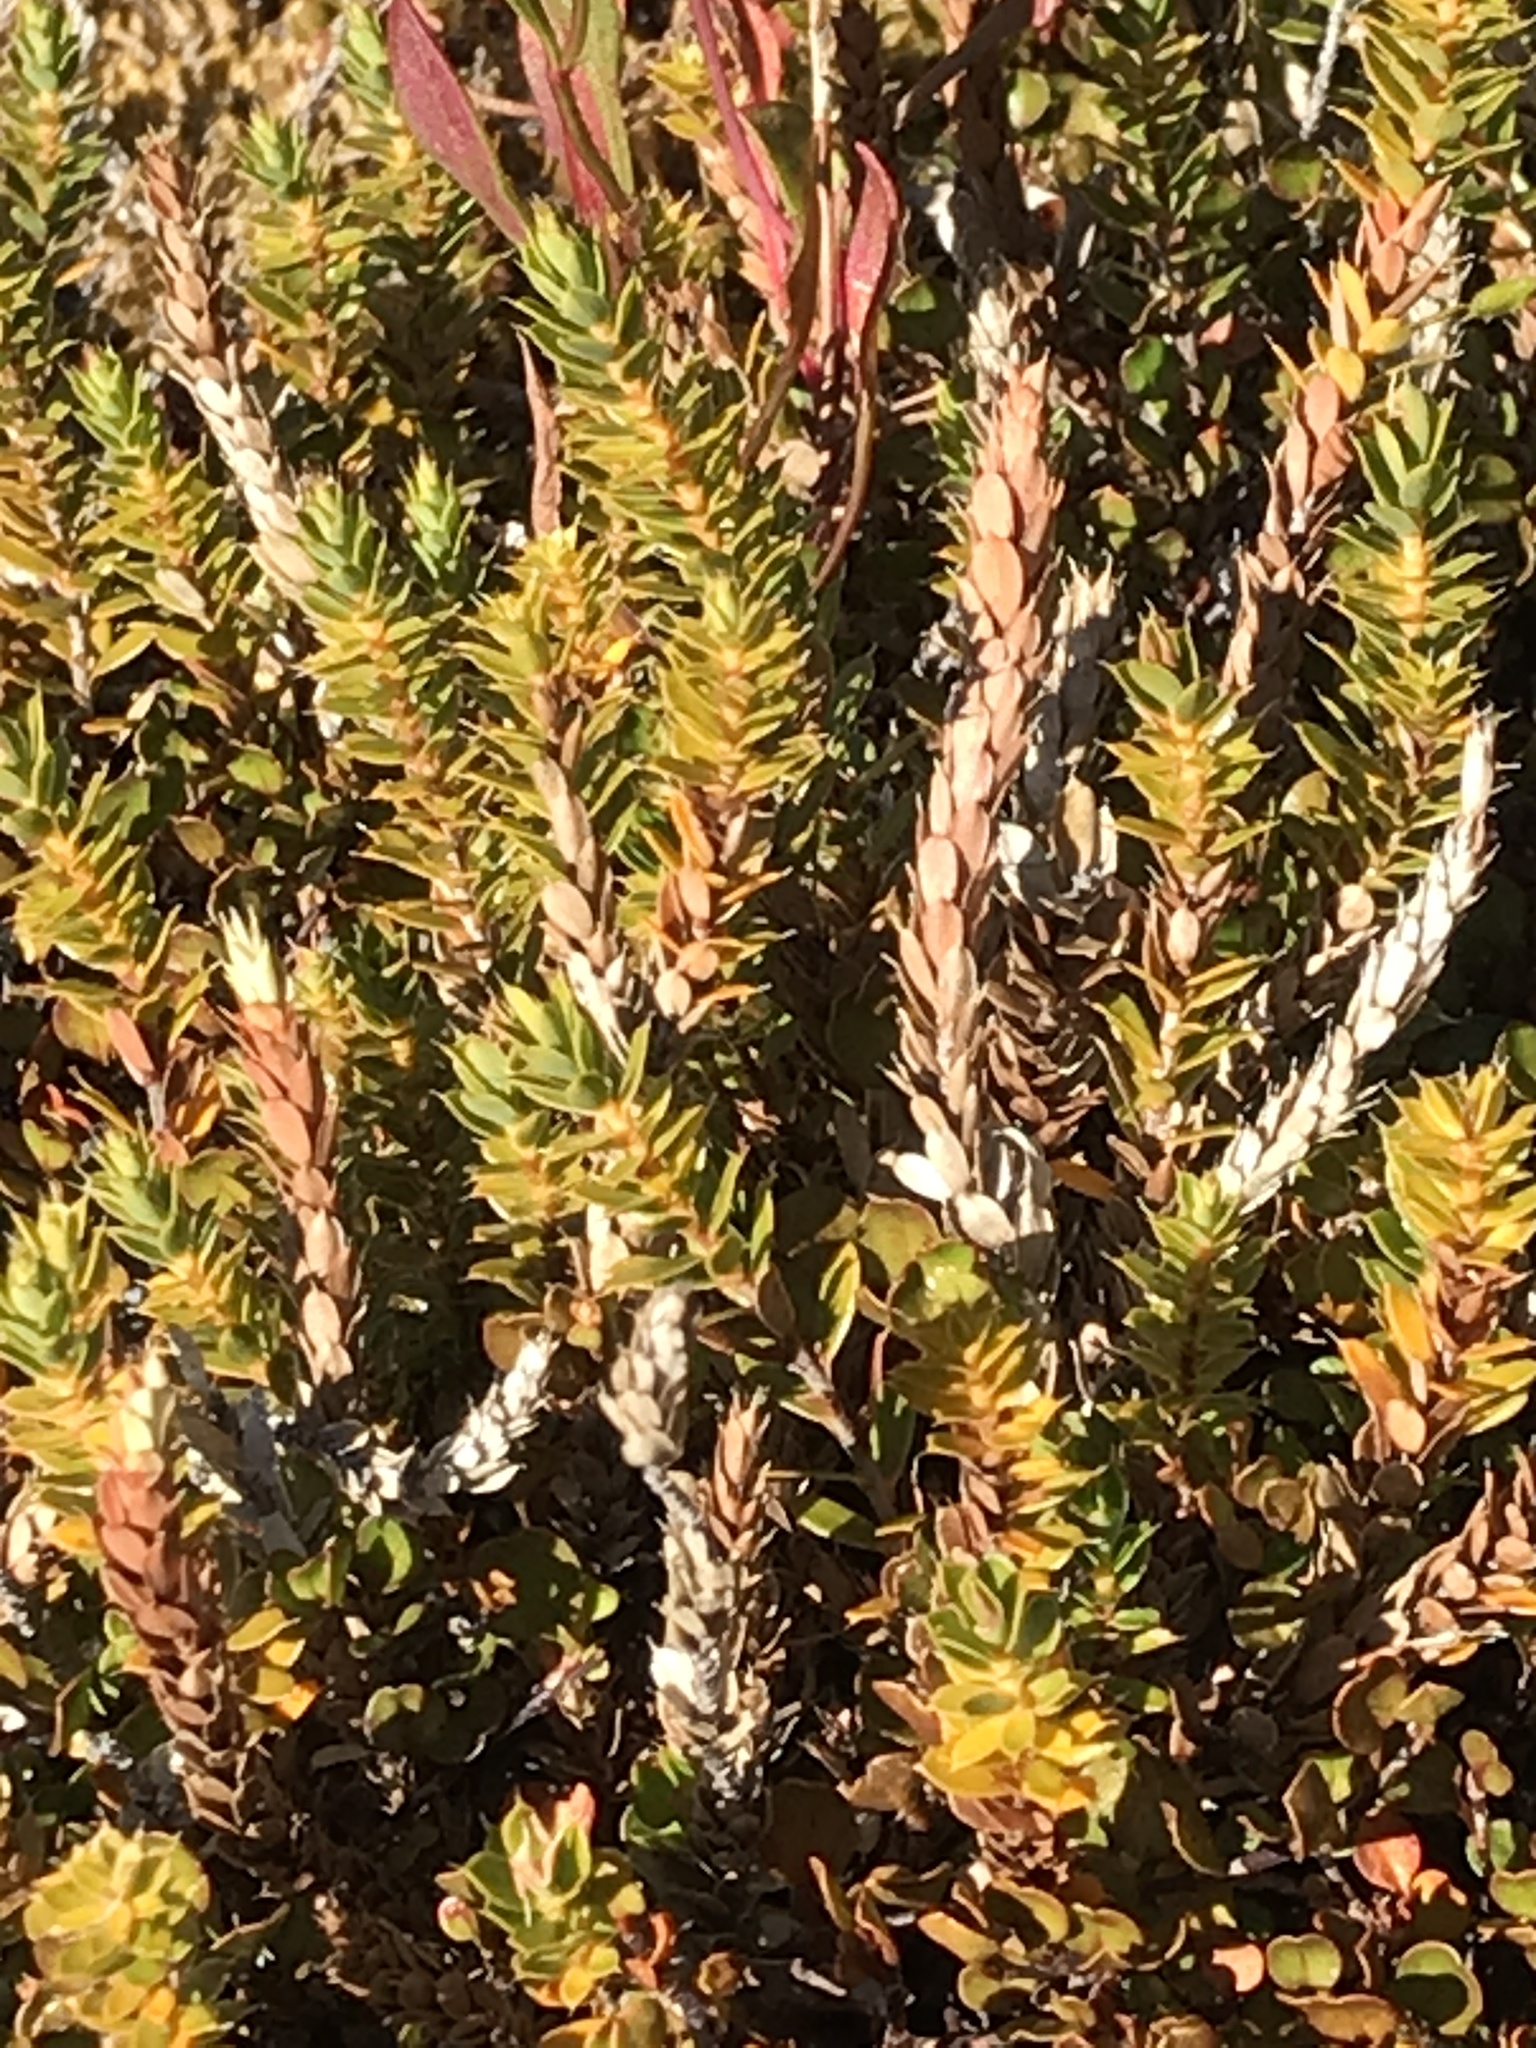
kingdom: Plantae
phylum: Tracheophyta
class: Magnoliopsida
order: Ericales
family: Ericaceae
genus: Styphelia
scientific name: Styphelia nesophila
